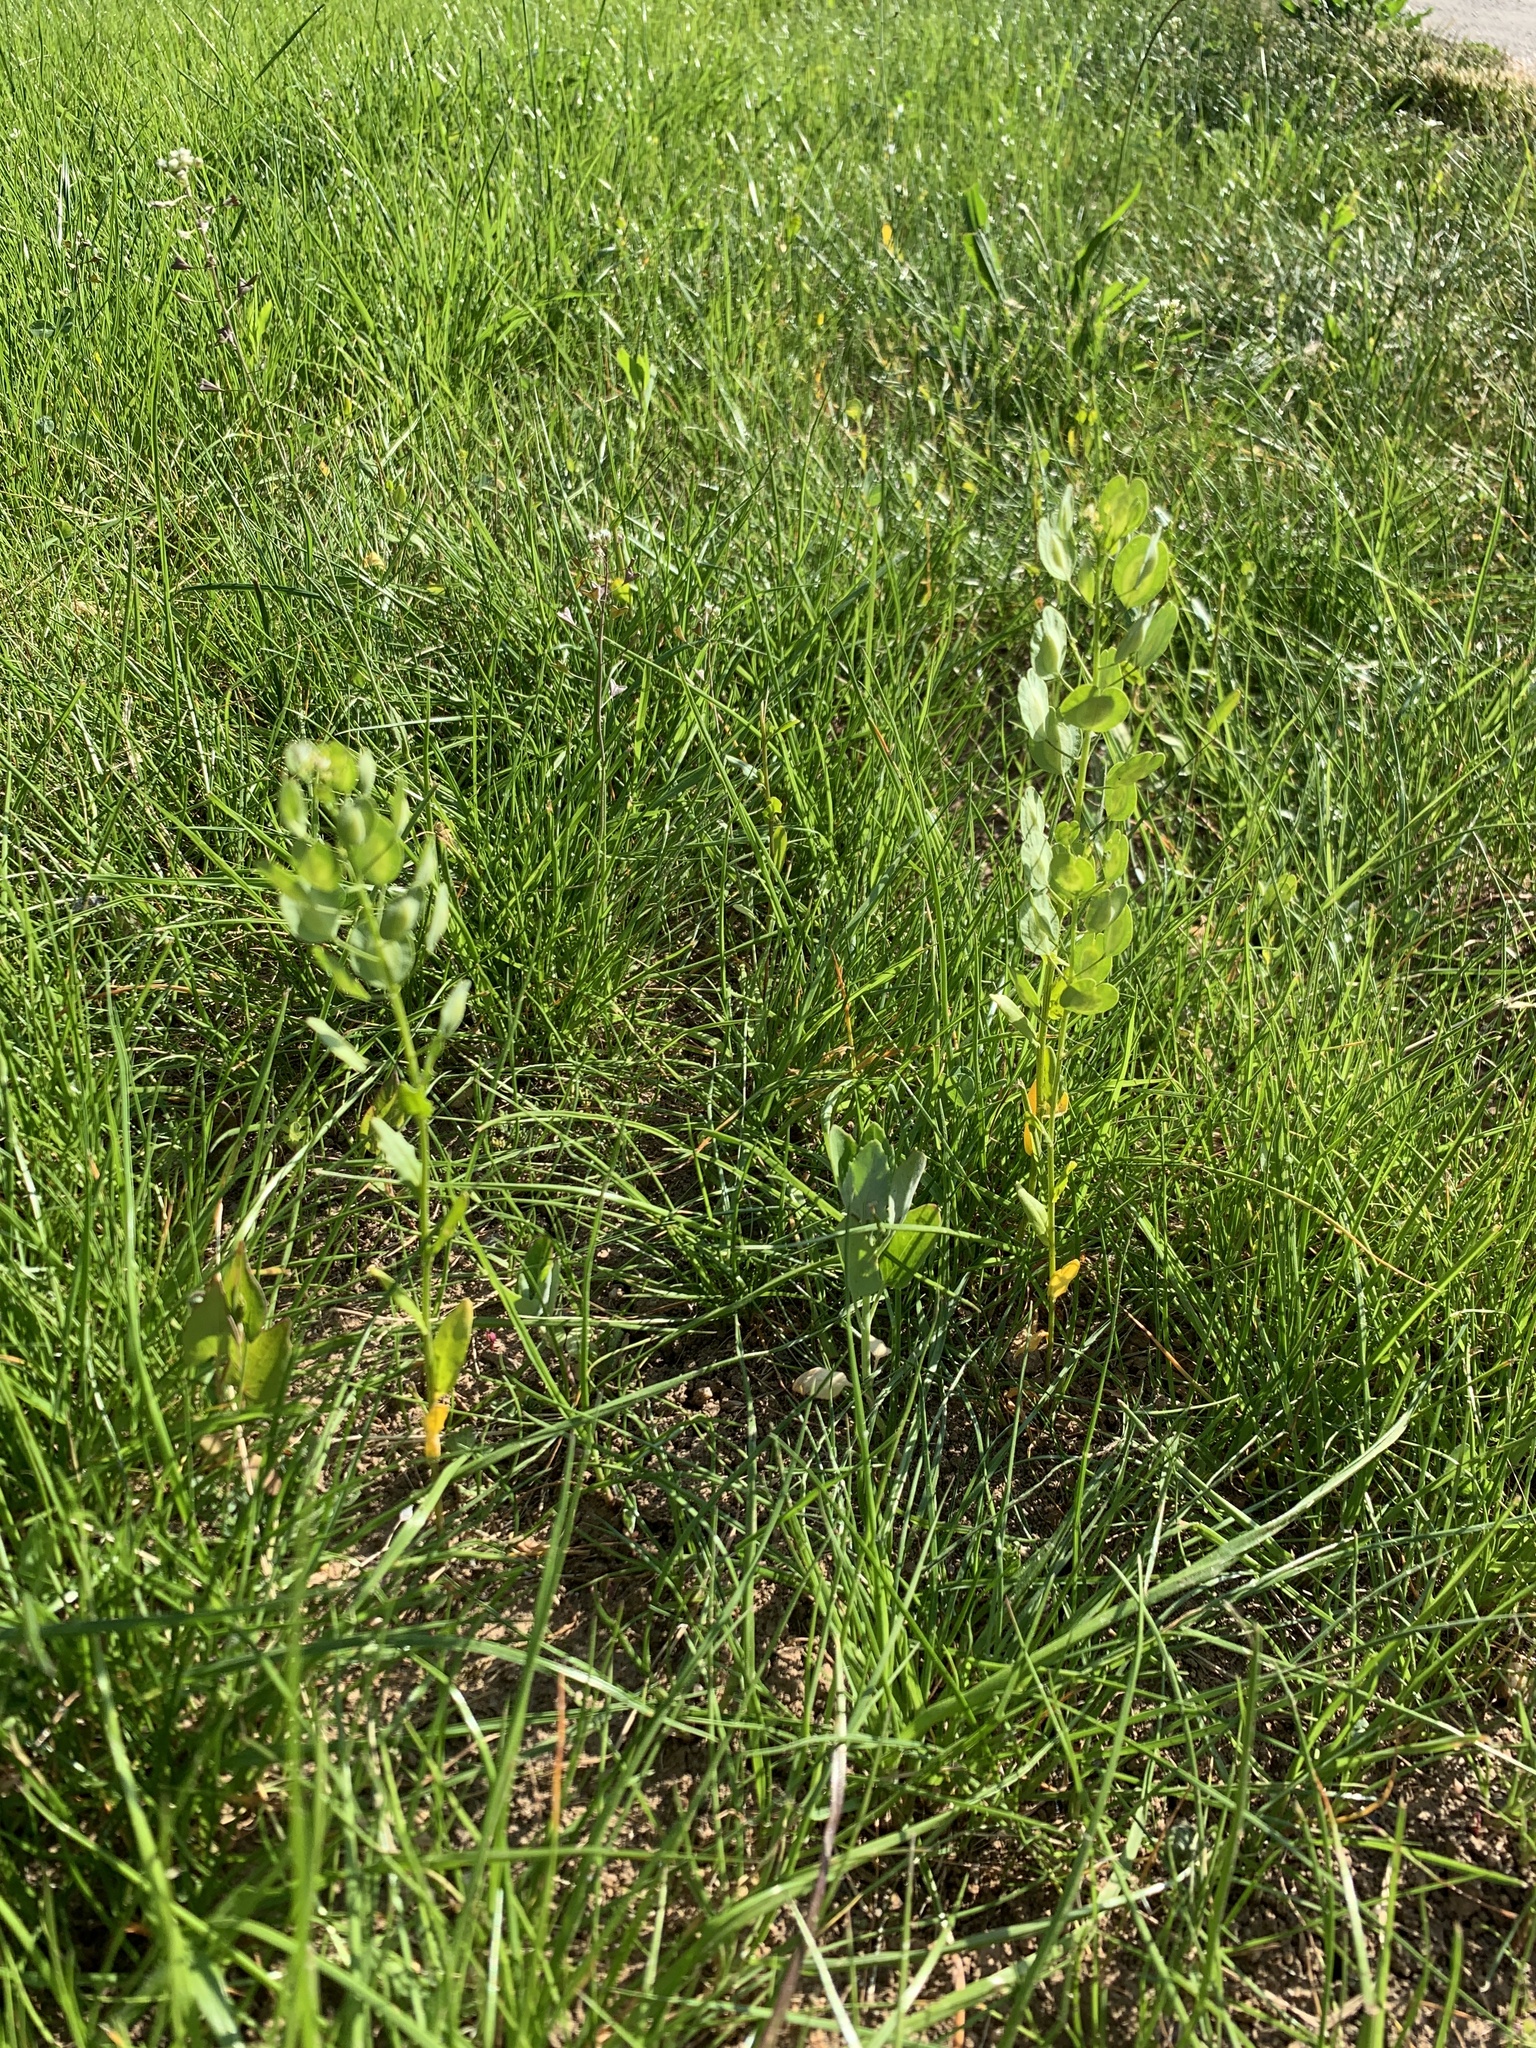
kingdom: Plantae
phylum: Tracheophyta
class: Magnoliopsida
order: Brassicales
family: Brassicaceae
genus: Thlaspi
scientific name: Thlaspi arvense
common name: Field pennycress
